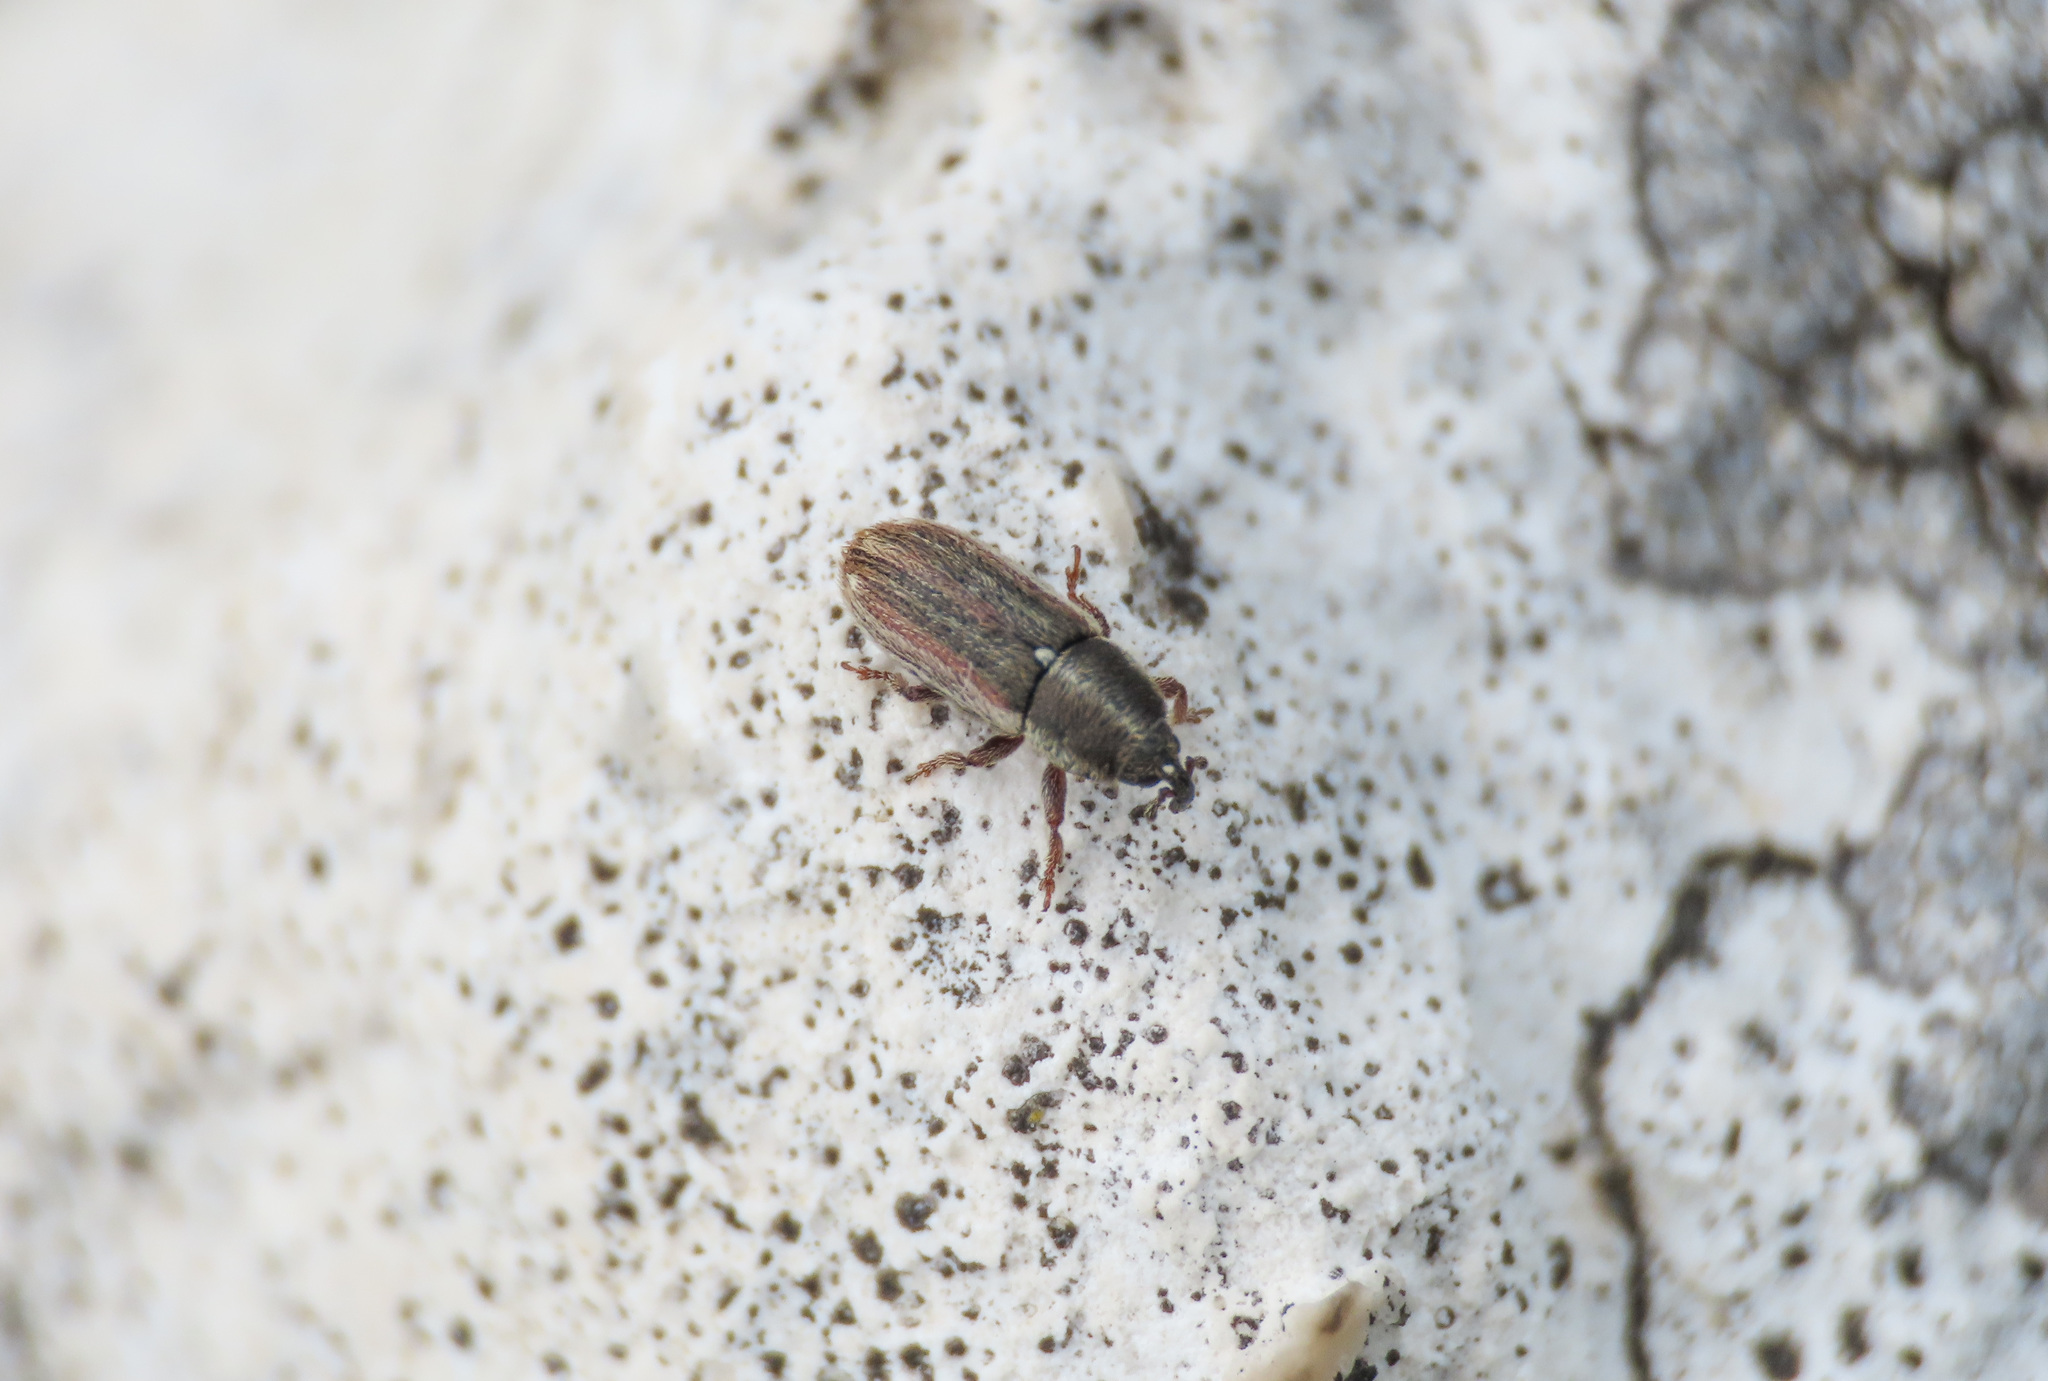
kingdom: Animalia
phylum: Arthropoda
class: Insecta
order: Coleoptera
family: Curculionidae
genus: Mecinus
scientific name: Mecinus circulatus
